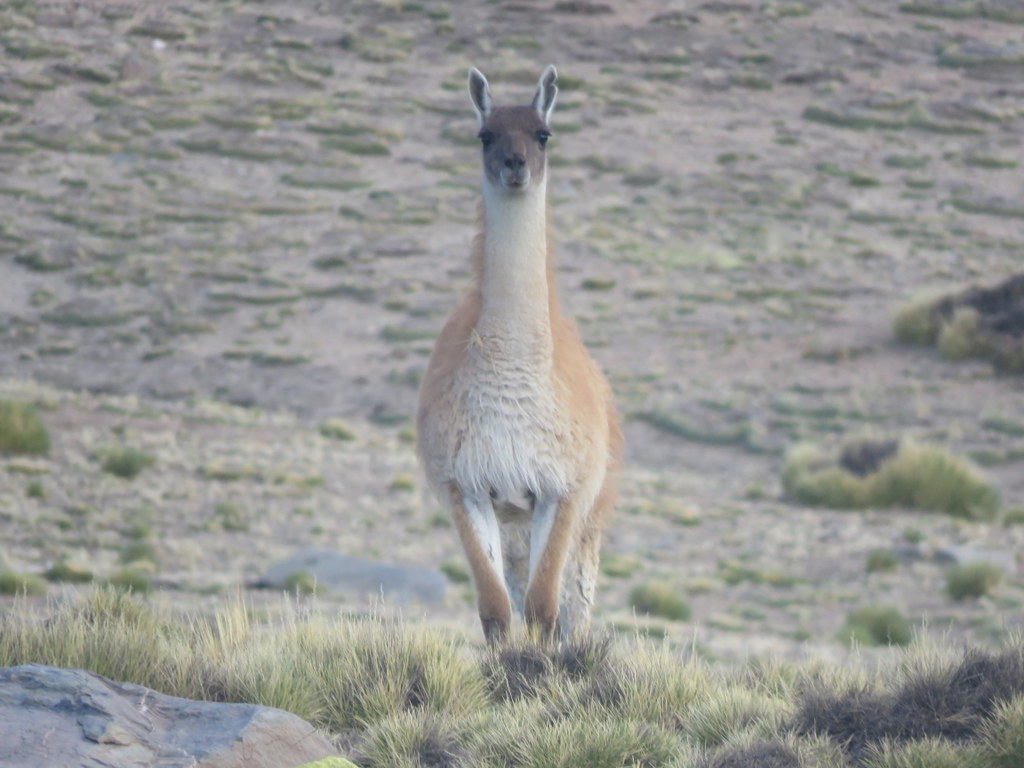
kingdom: Animalia
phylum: Chordata
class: Mammalia
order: Artiodactyla
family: Camelidae
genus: Lama
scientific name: Lama glama
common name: Llama
